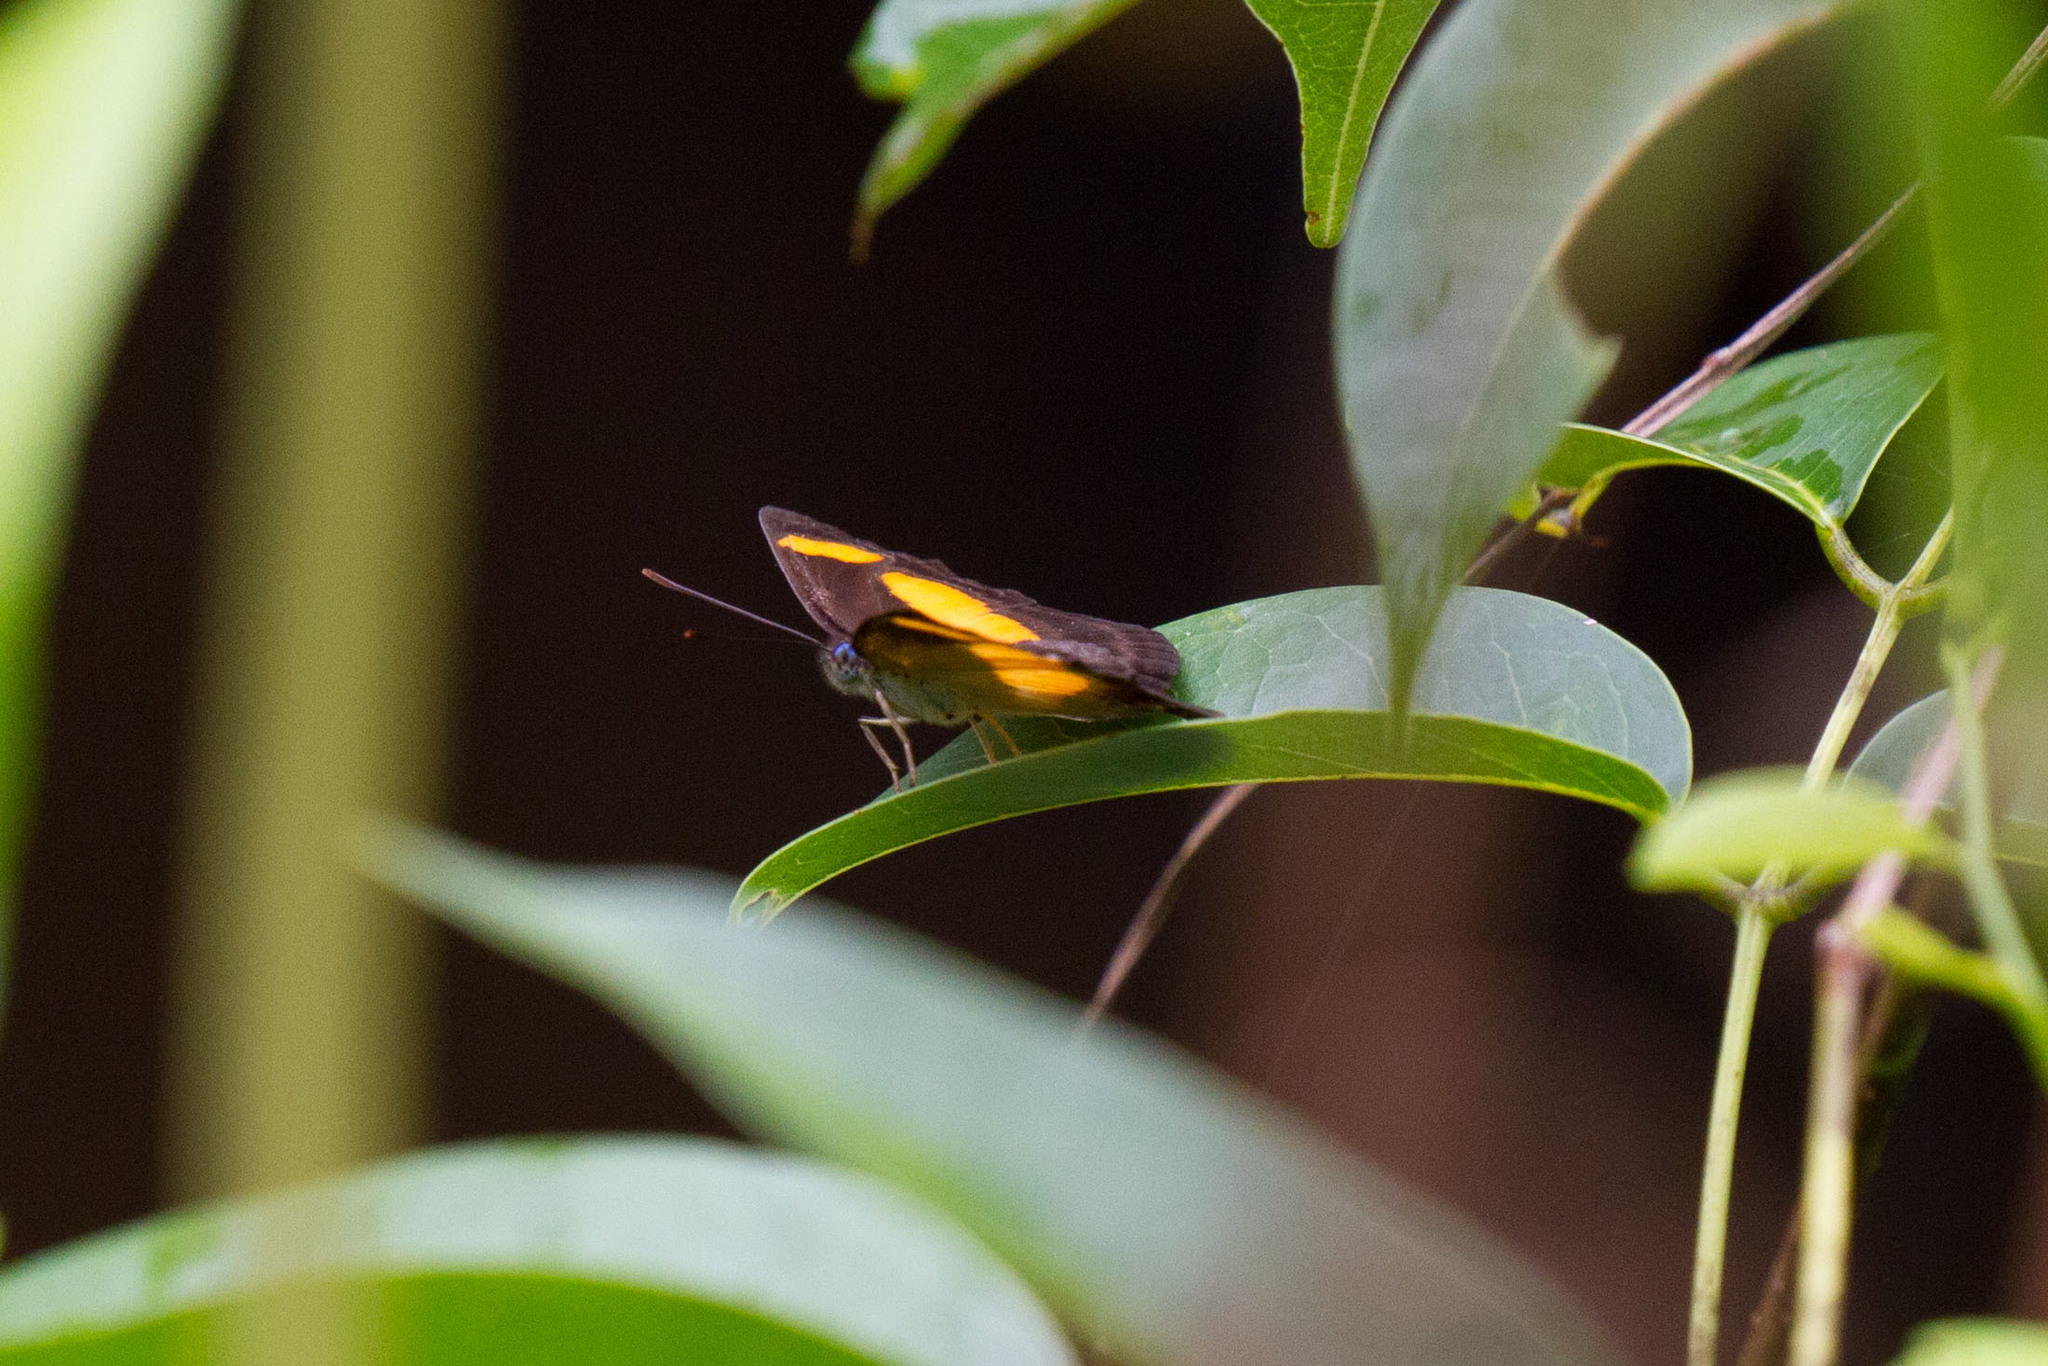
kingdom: Animalia
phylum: Arthropoda
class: Insecta
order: Lepidoptera
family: Nymphalidae
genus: Pantoporia
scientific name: Pantoporia consimilis
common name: Orange plane
